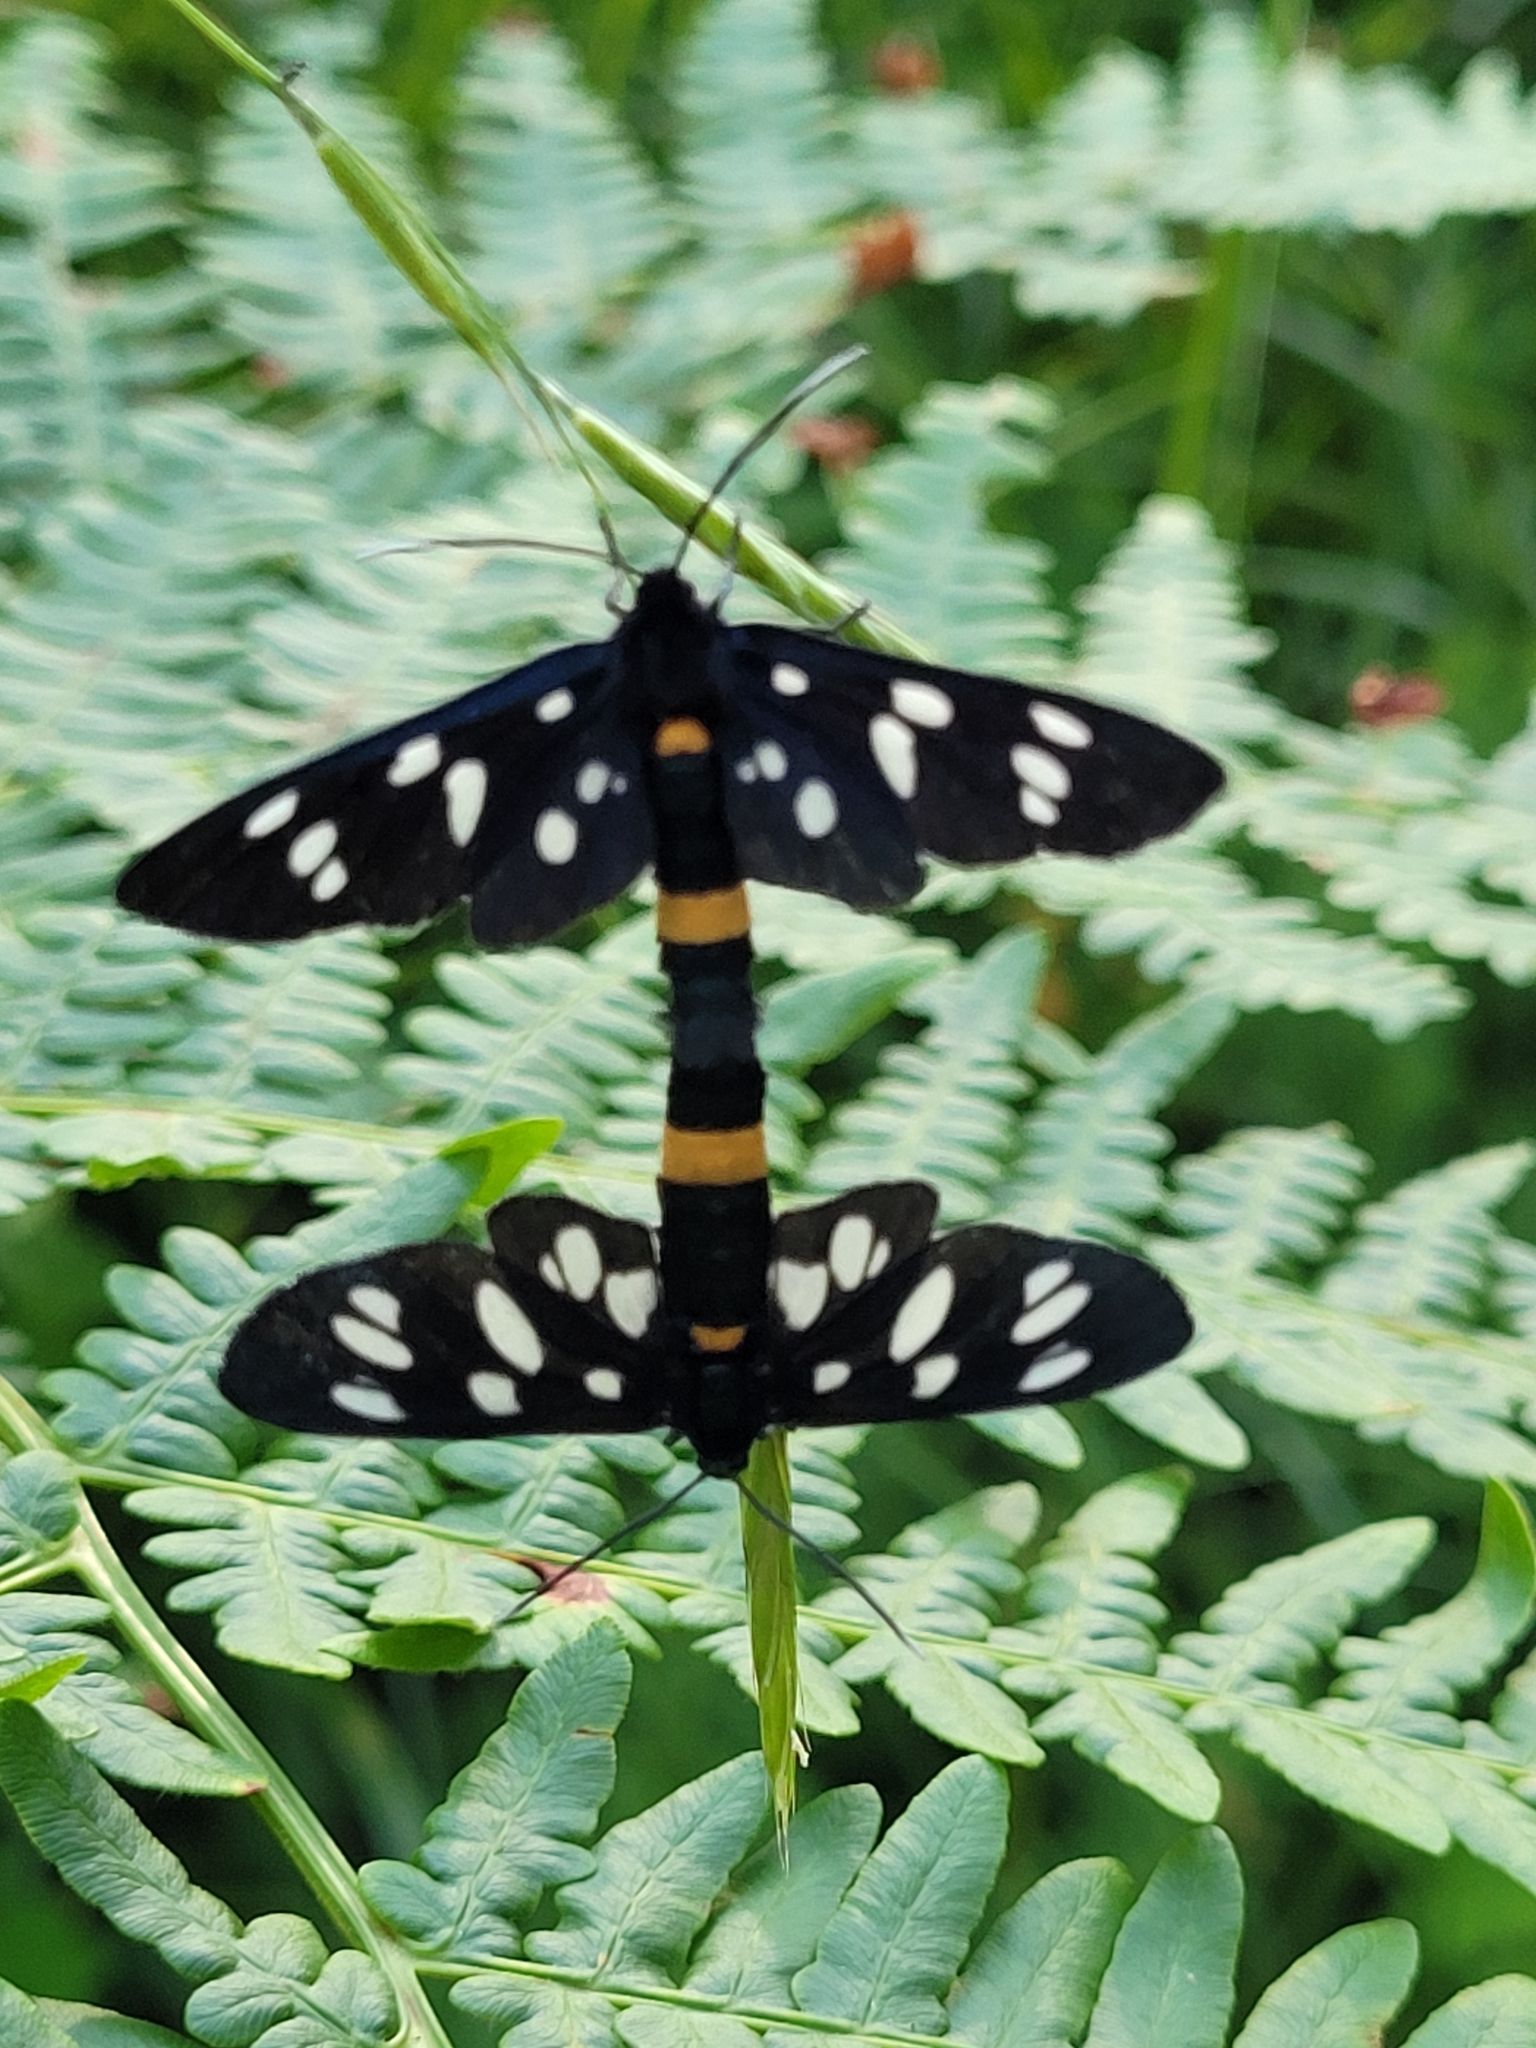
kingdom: Animalia
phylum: Arthropoda
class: Insecta
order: Lepidoptera
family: Erebidae
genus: Amata
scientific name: Amata phegea
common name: Nine-spotted
